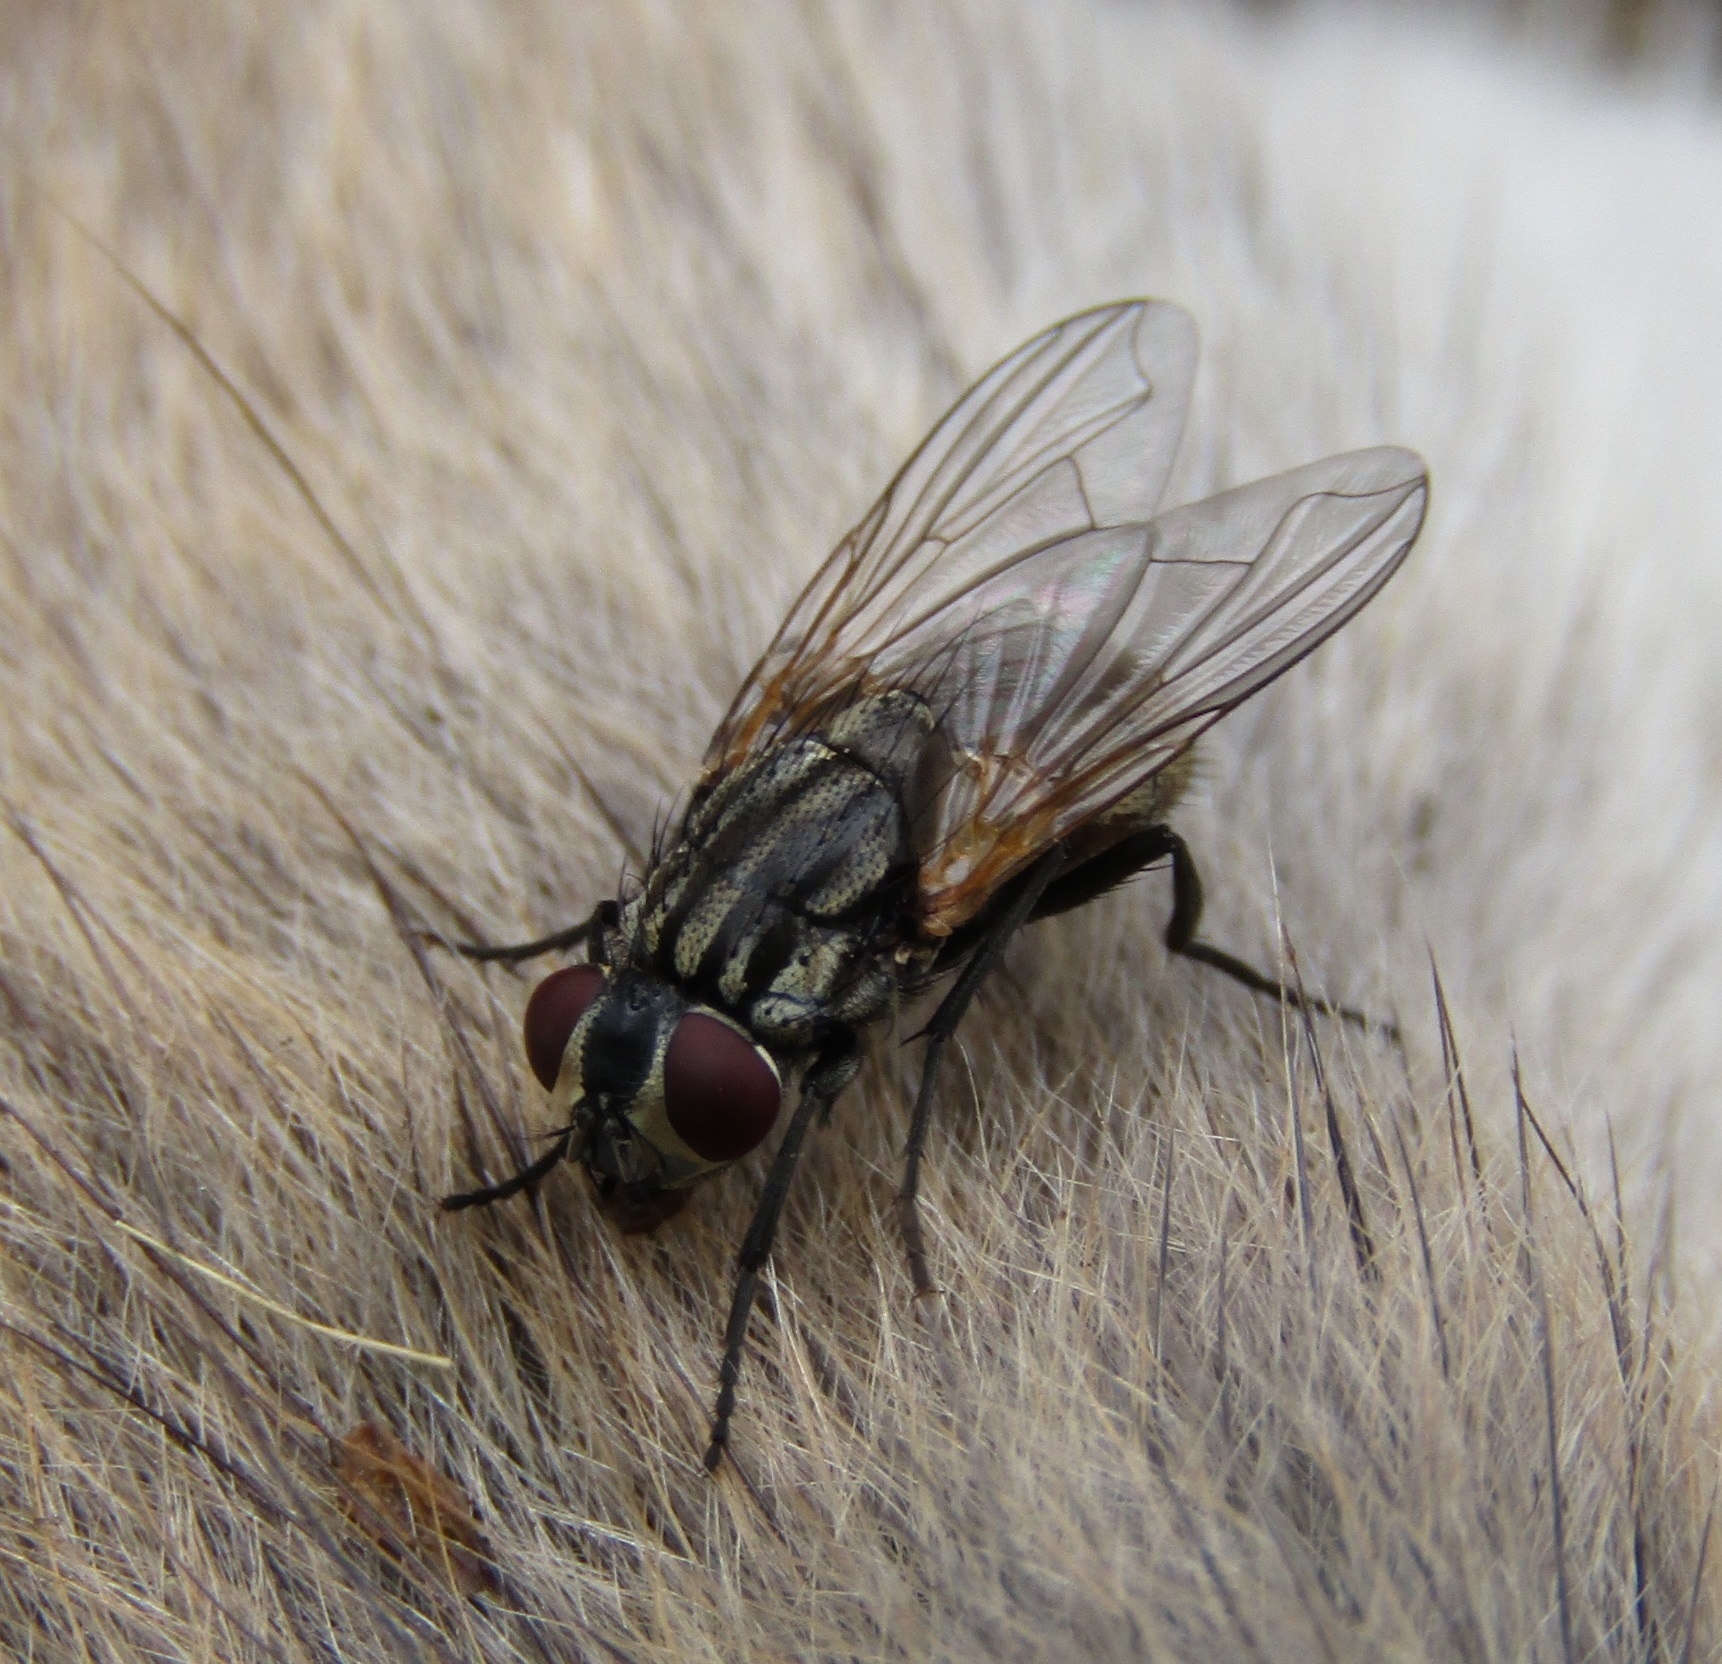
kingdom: Animalia
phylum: Arthropoda
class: Insecta
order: Diptera
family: Muscidae
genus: Musca
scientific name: Musca domestica
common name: House fly
